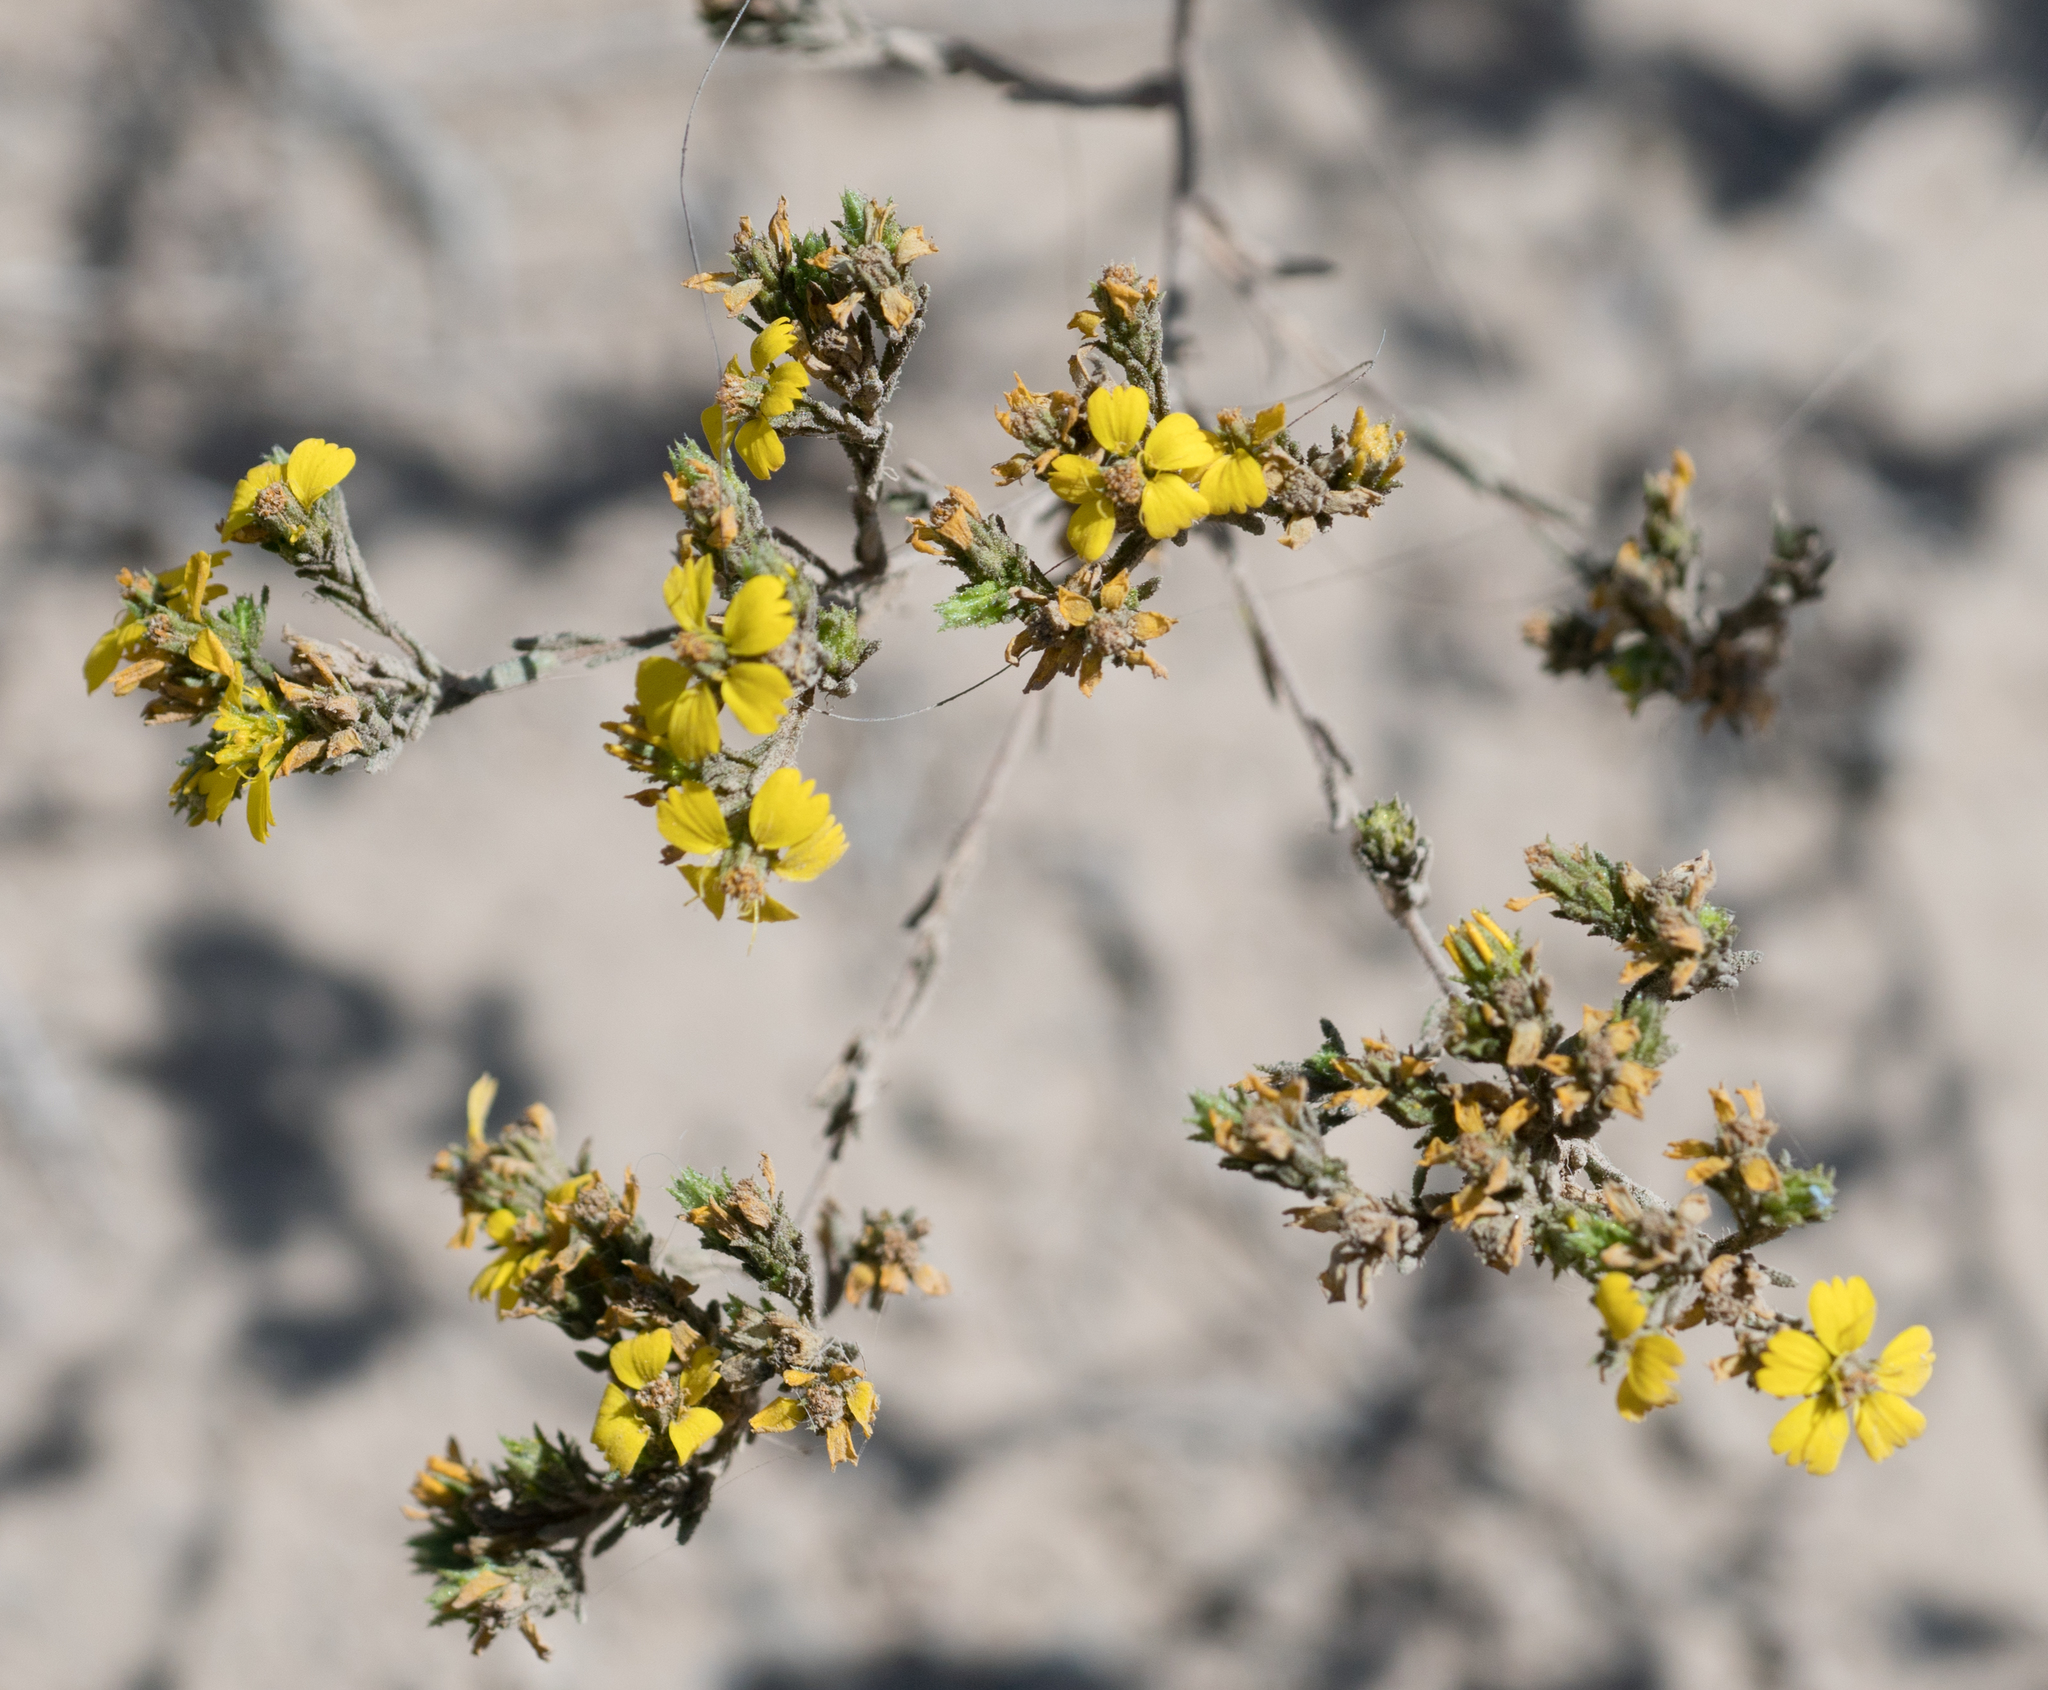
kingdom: Plantae
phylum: Tracheophyta
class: Magnoliopsida
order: Asterales
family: Asteraceae
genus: Deinandra
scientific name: Deinandra fasciculata
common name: Clustered tarweed
